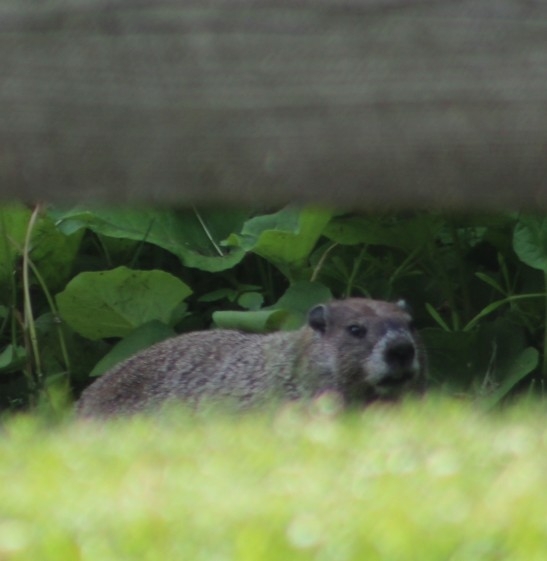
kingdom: Animalia
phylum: Chordata
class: Mammalia
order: Rodentia
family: Sciuridae
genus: Marmota
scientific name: Marmota monax
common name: Groundhog
